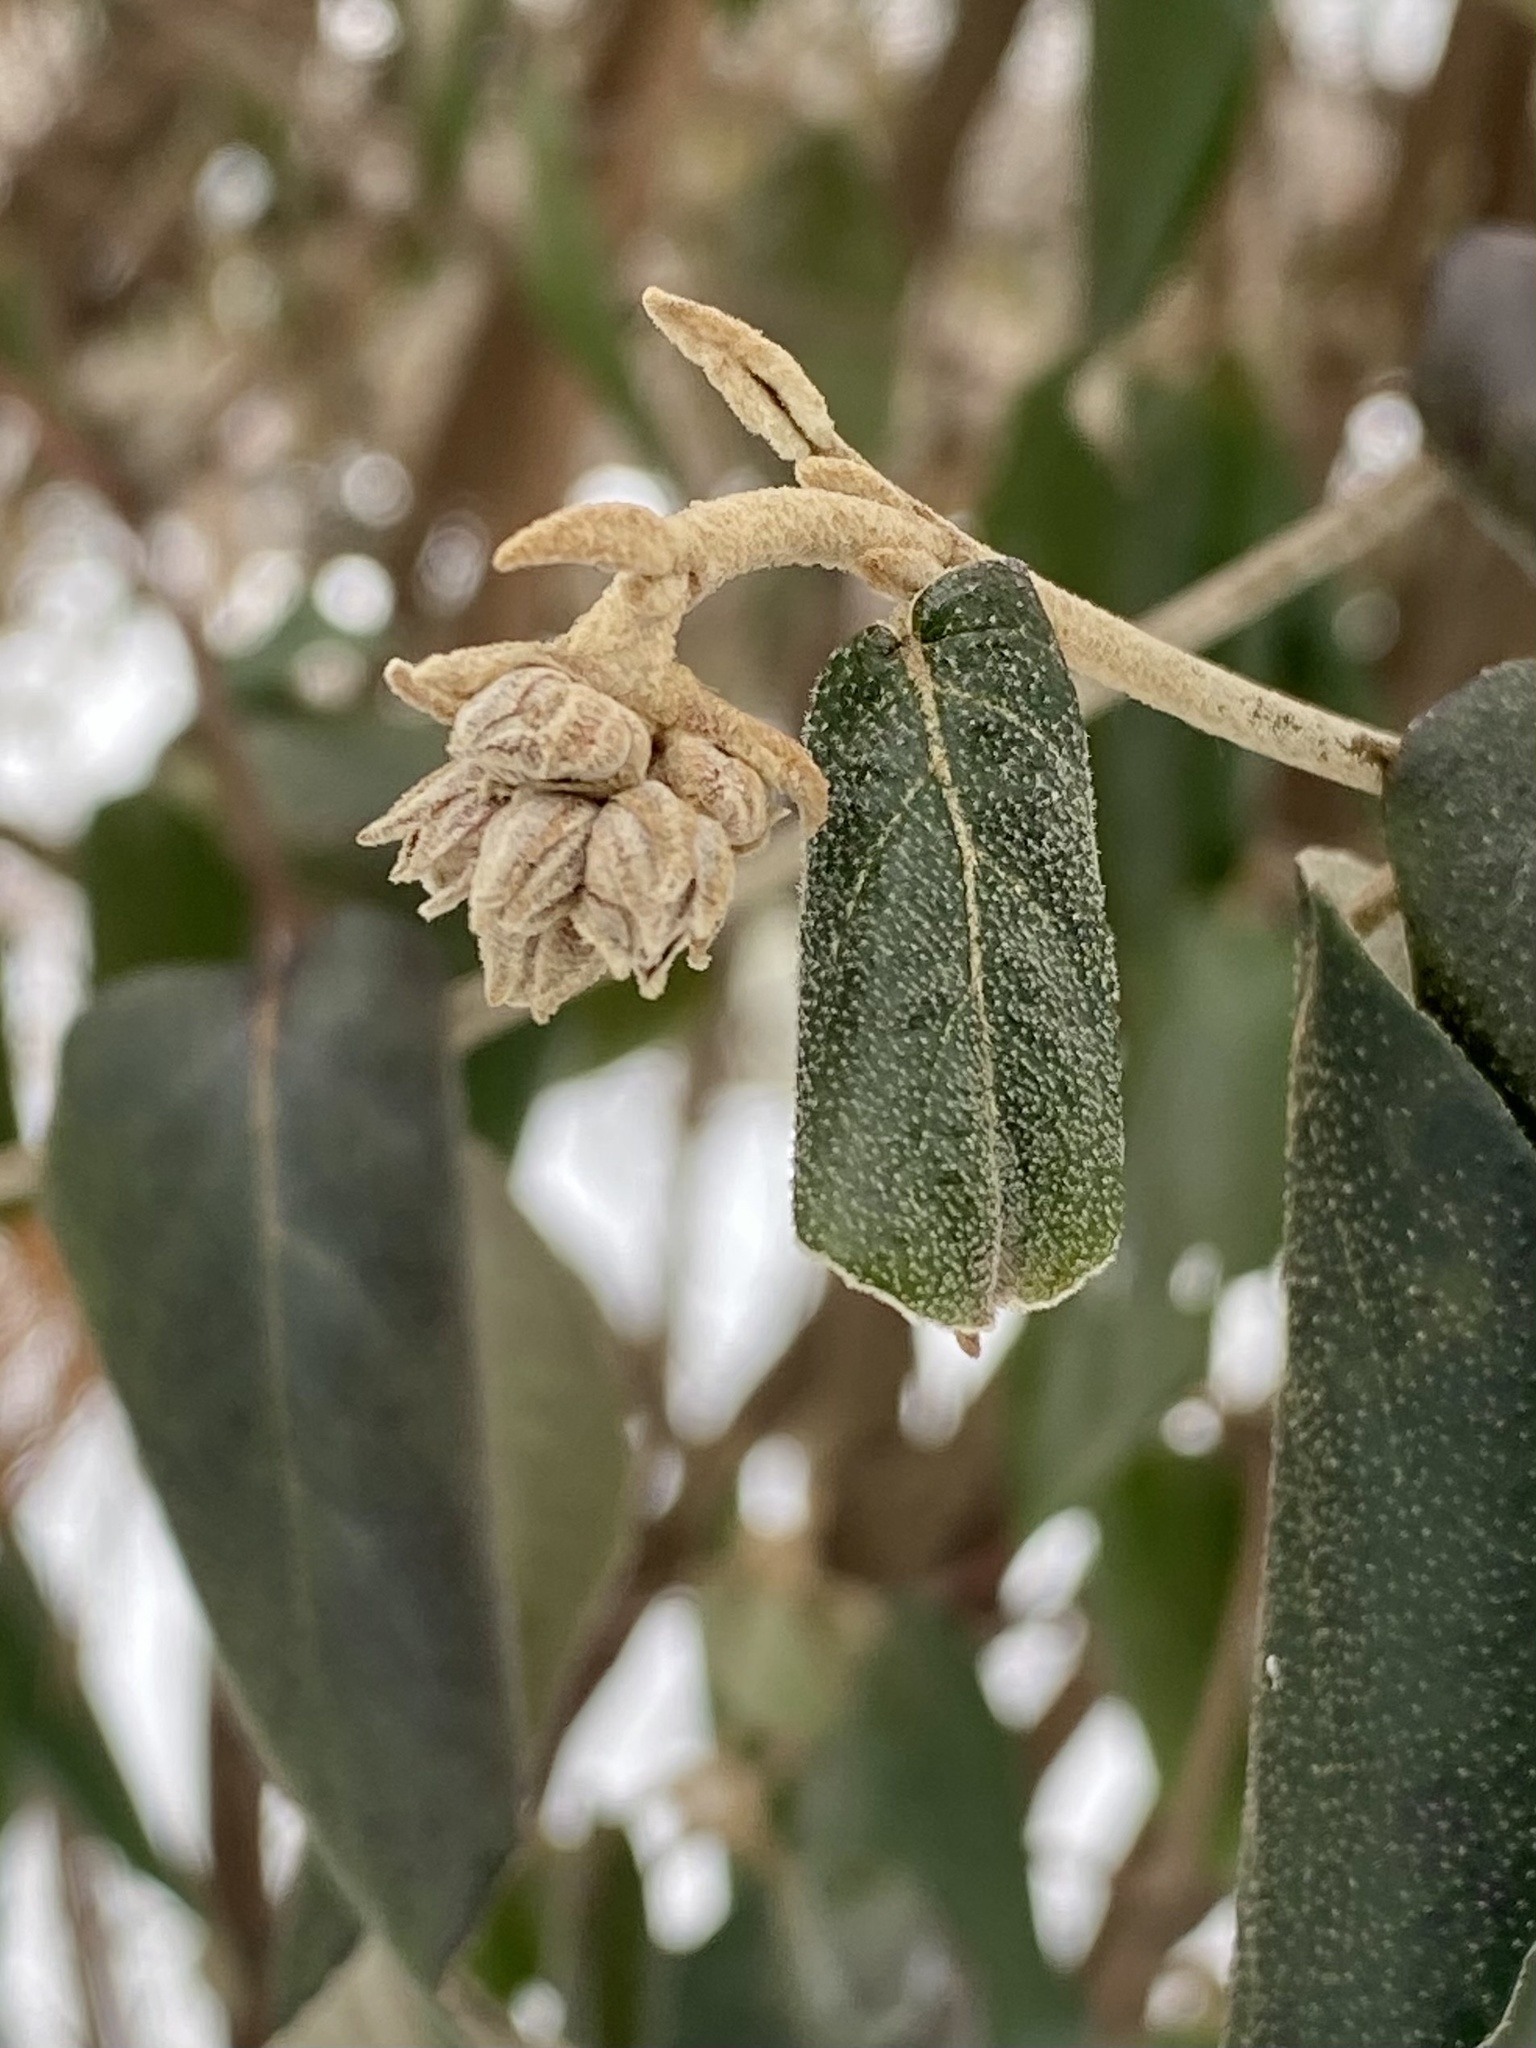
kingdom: Plantae
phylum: Tracheophyta
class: Magnoliopsida
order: Dipsacales
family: Viburnaceae
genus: Viburnum
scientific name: Viburnum rhytidophyllum
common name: Wrinkled viburnum
